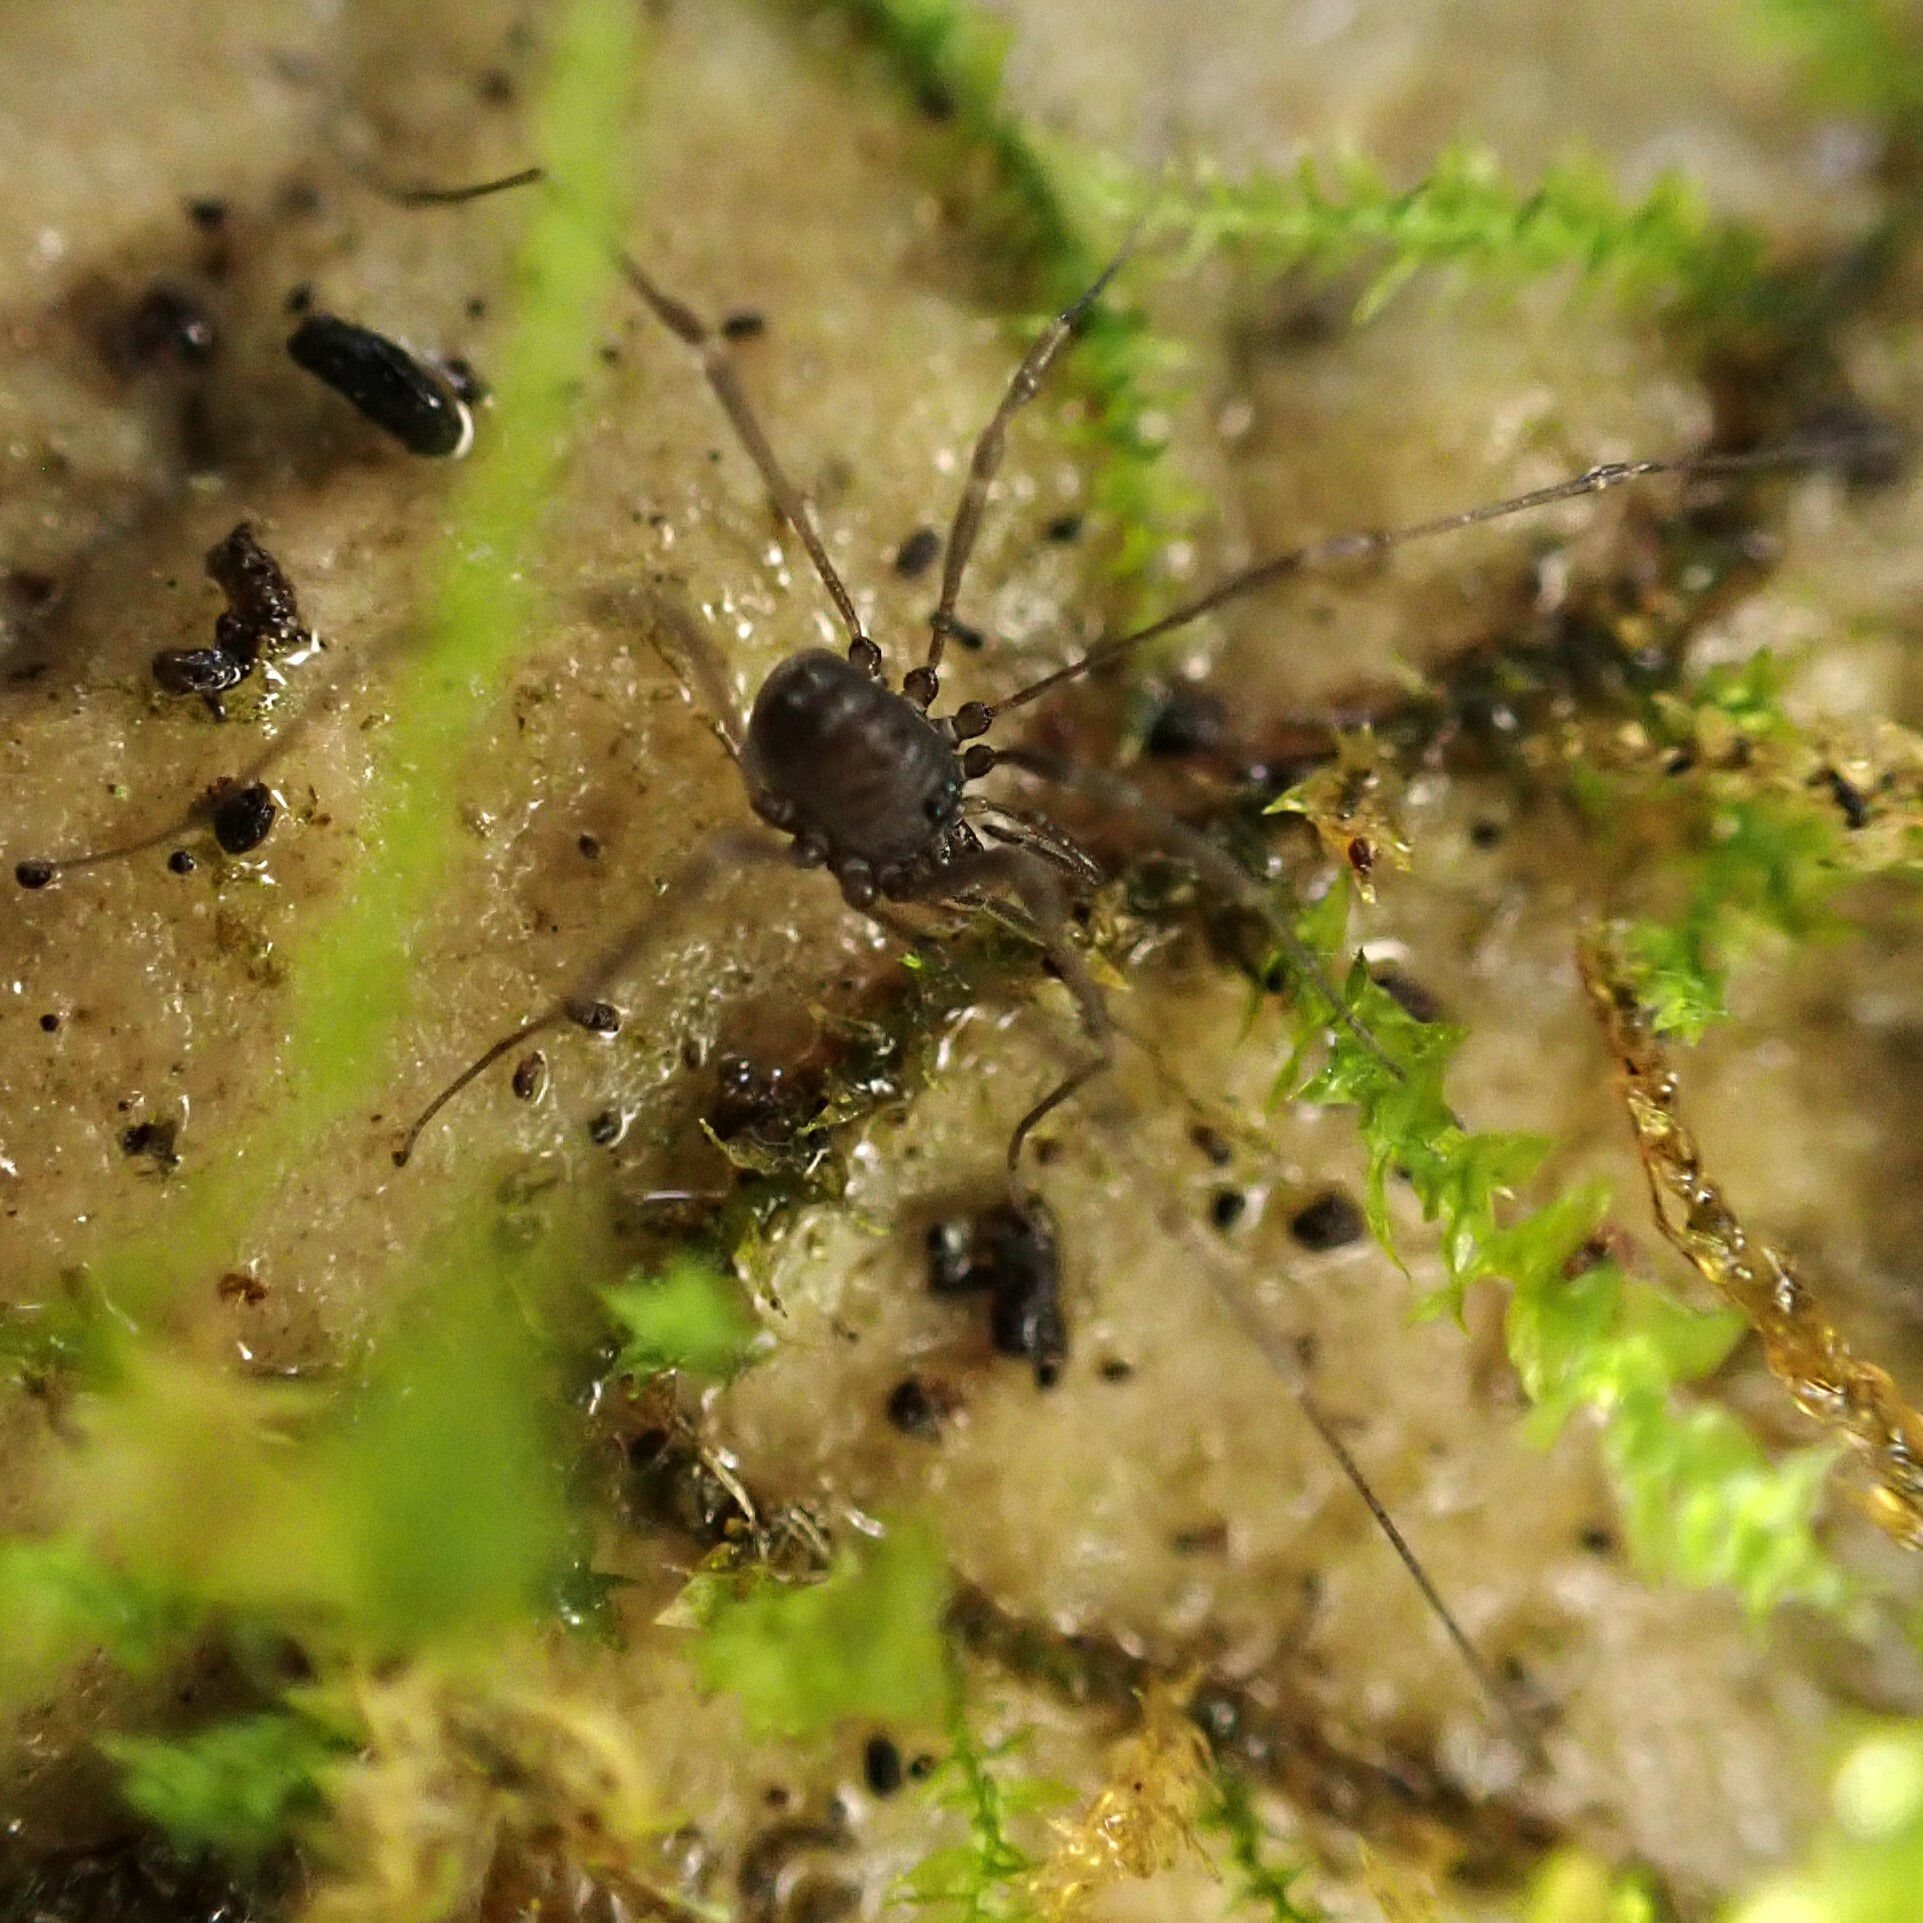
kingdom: Animalia
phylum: Arthropoda
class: Arachnida
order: Opiliones
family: Nemastomatidae
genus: Nemastomella
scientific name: Nemastomella dubia
